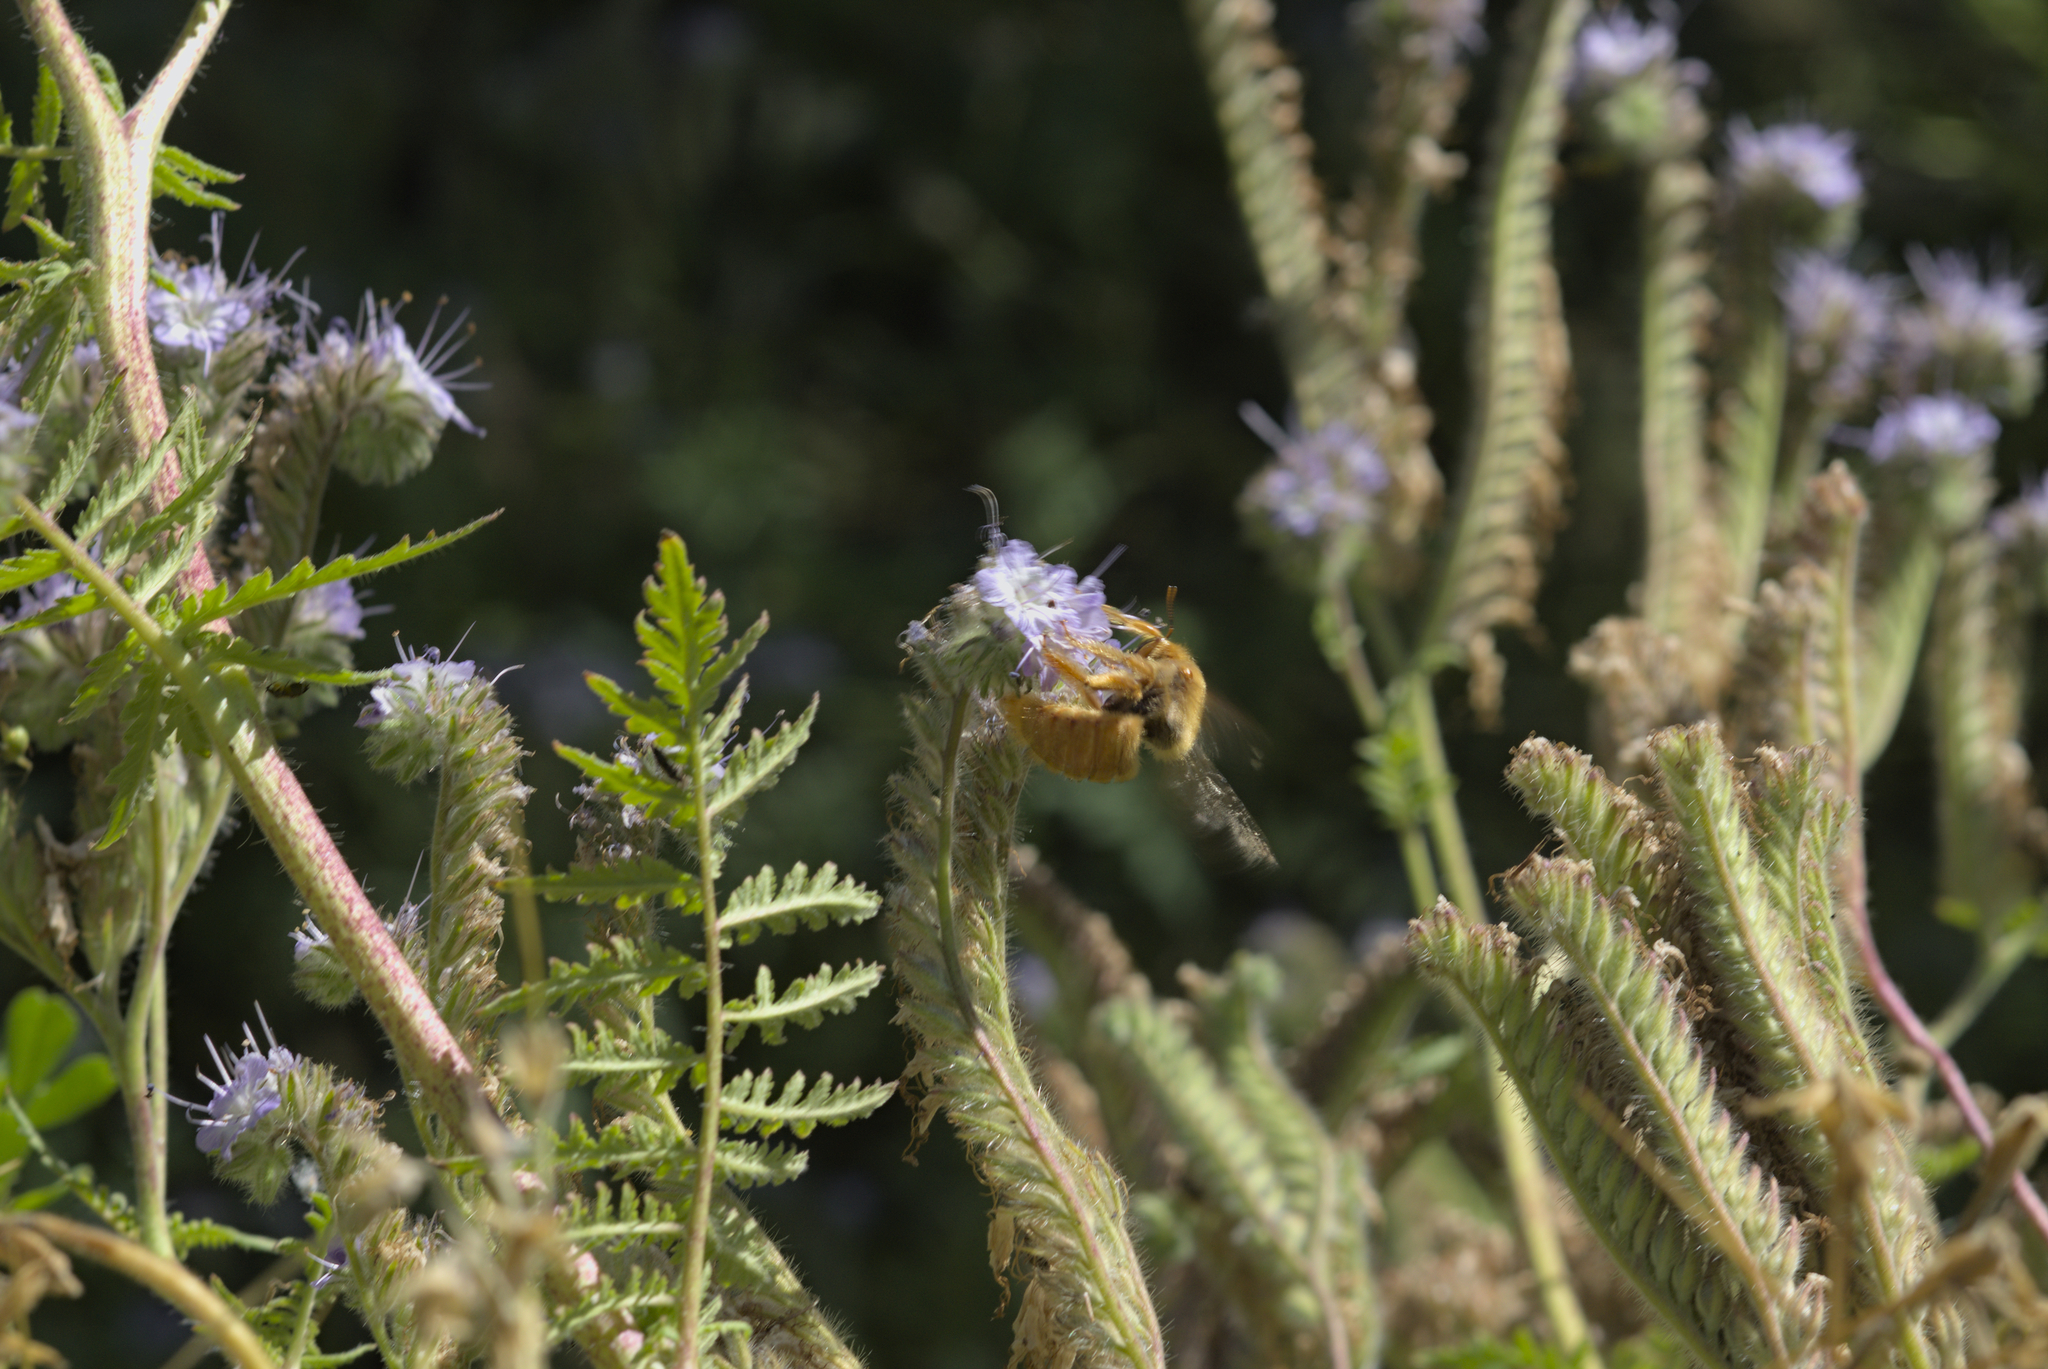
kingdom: Animalia
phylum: Arthropoda
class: Insecta
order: Hymenoptera
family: Apidae
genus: Xylocopa
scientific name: Xylocopa sonorina
